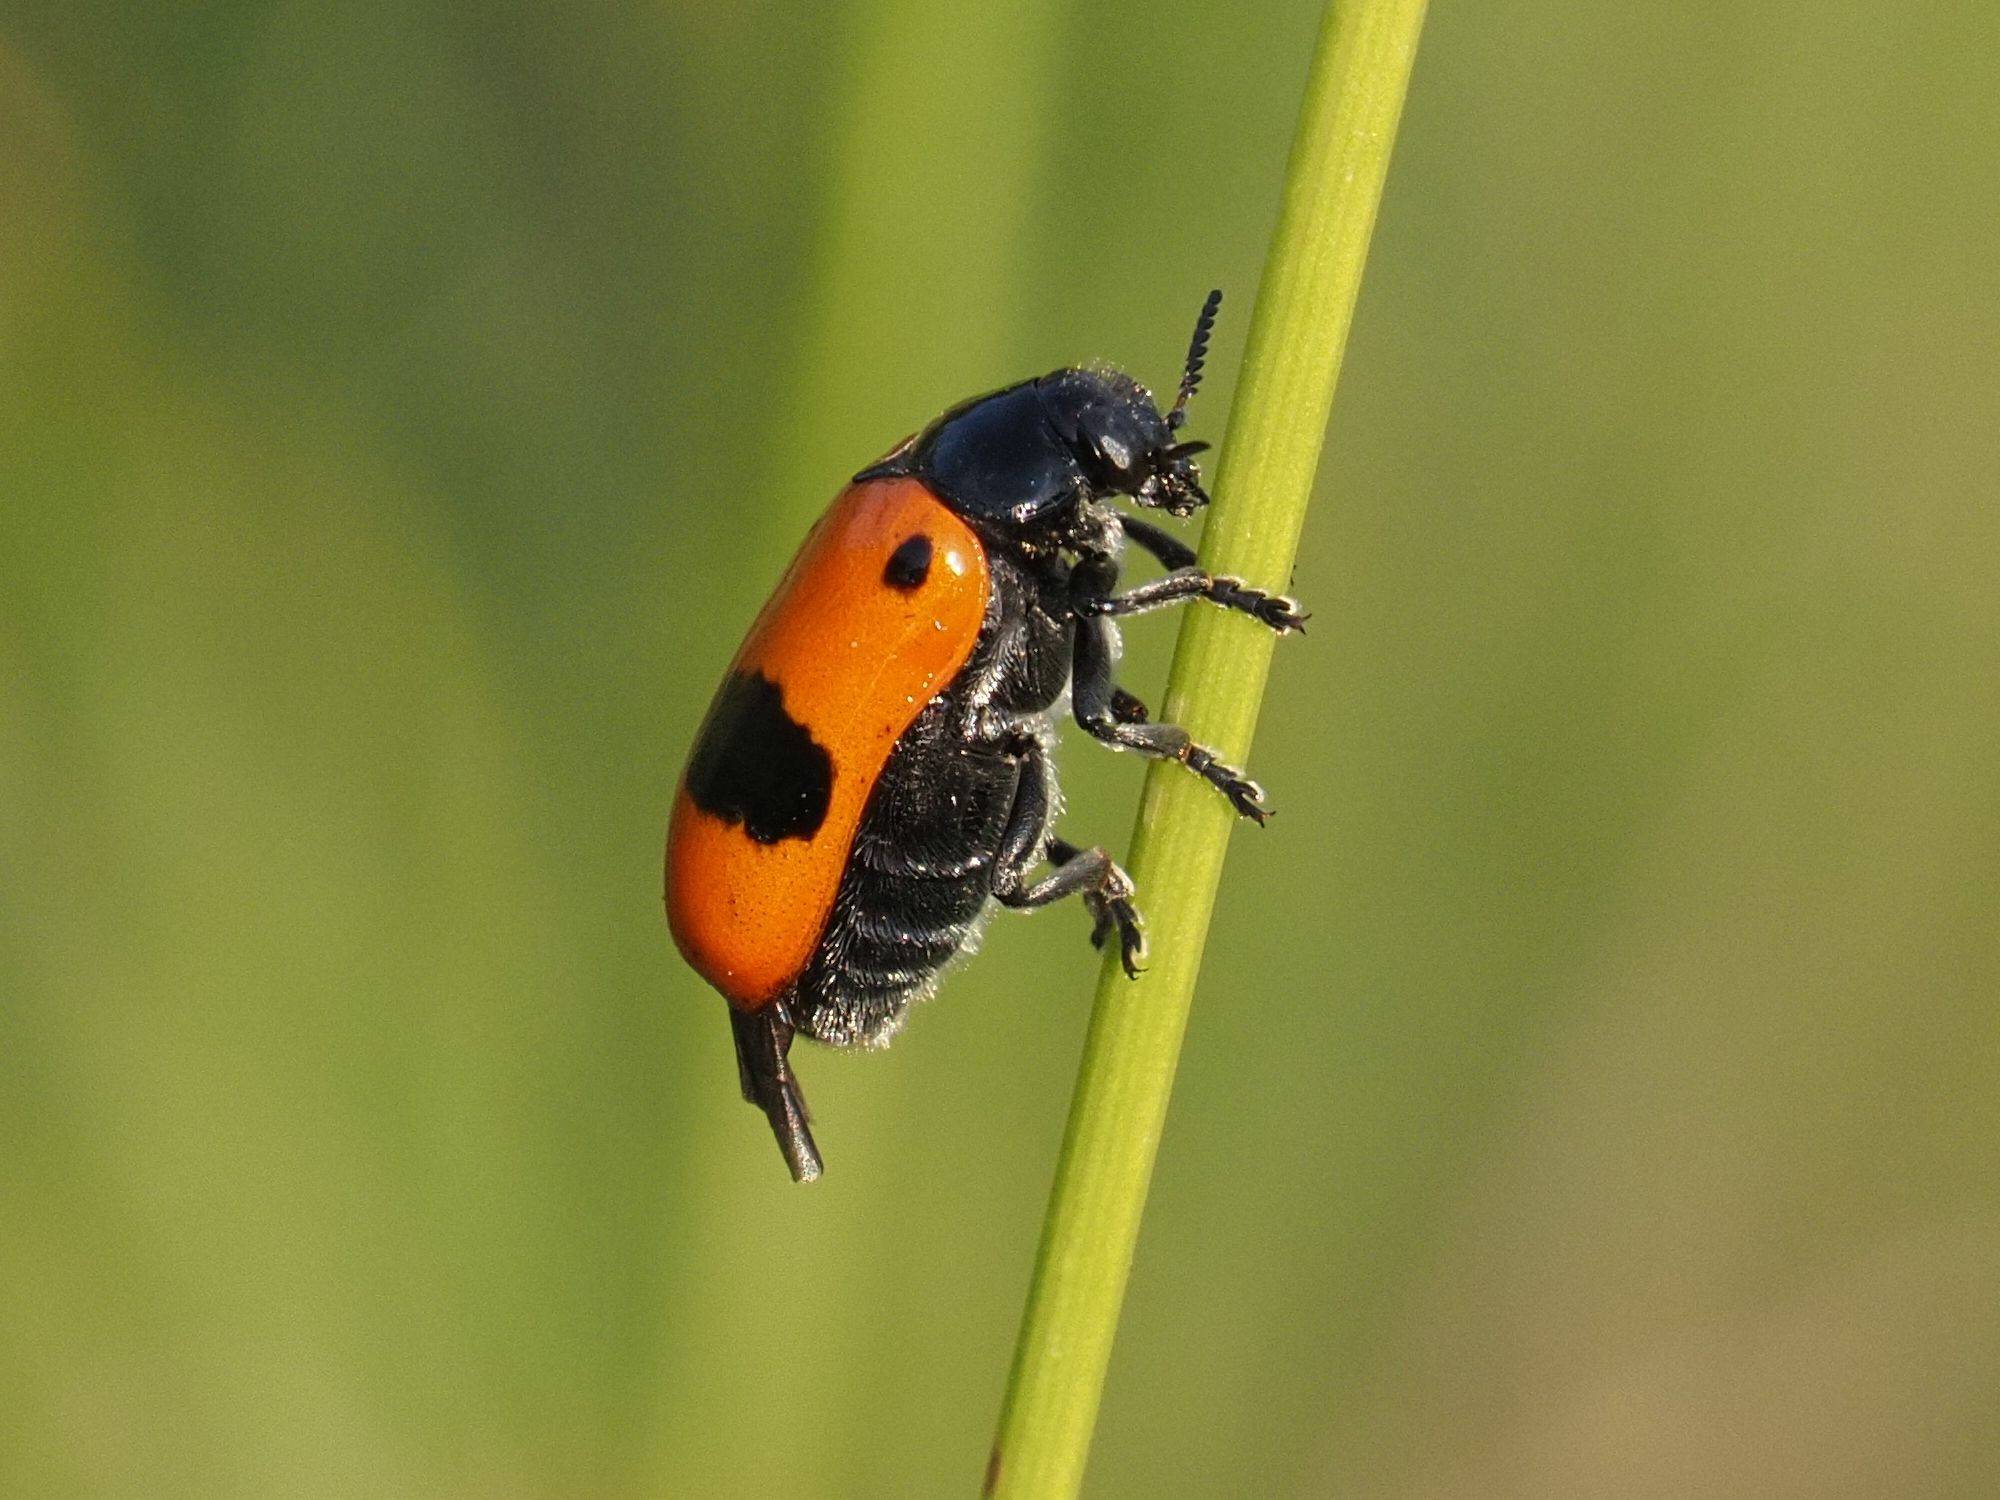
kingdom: Animalia
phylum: Arthropoda
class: Insecta
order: Coleoptera
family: Chrysomelidae
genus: Clytra
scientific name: Clytra laeviuscula
